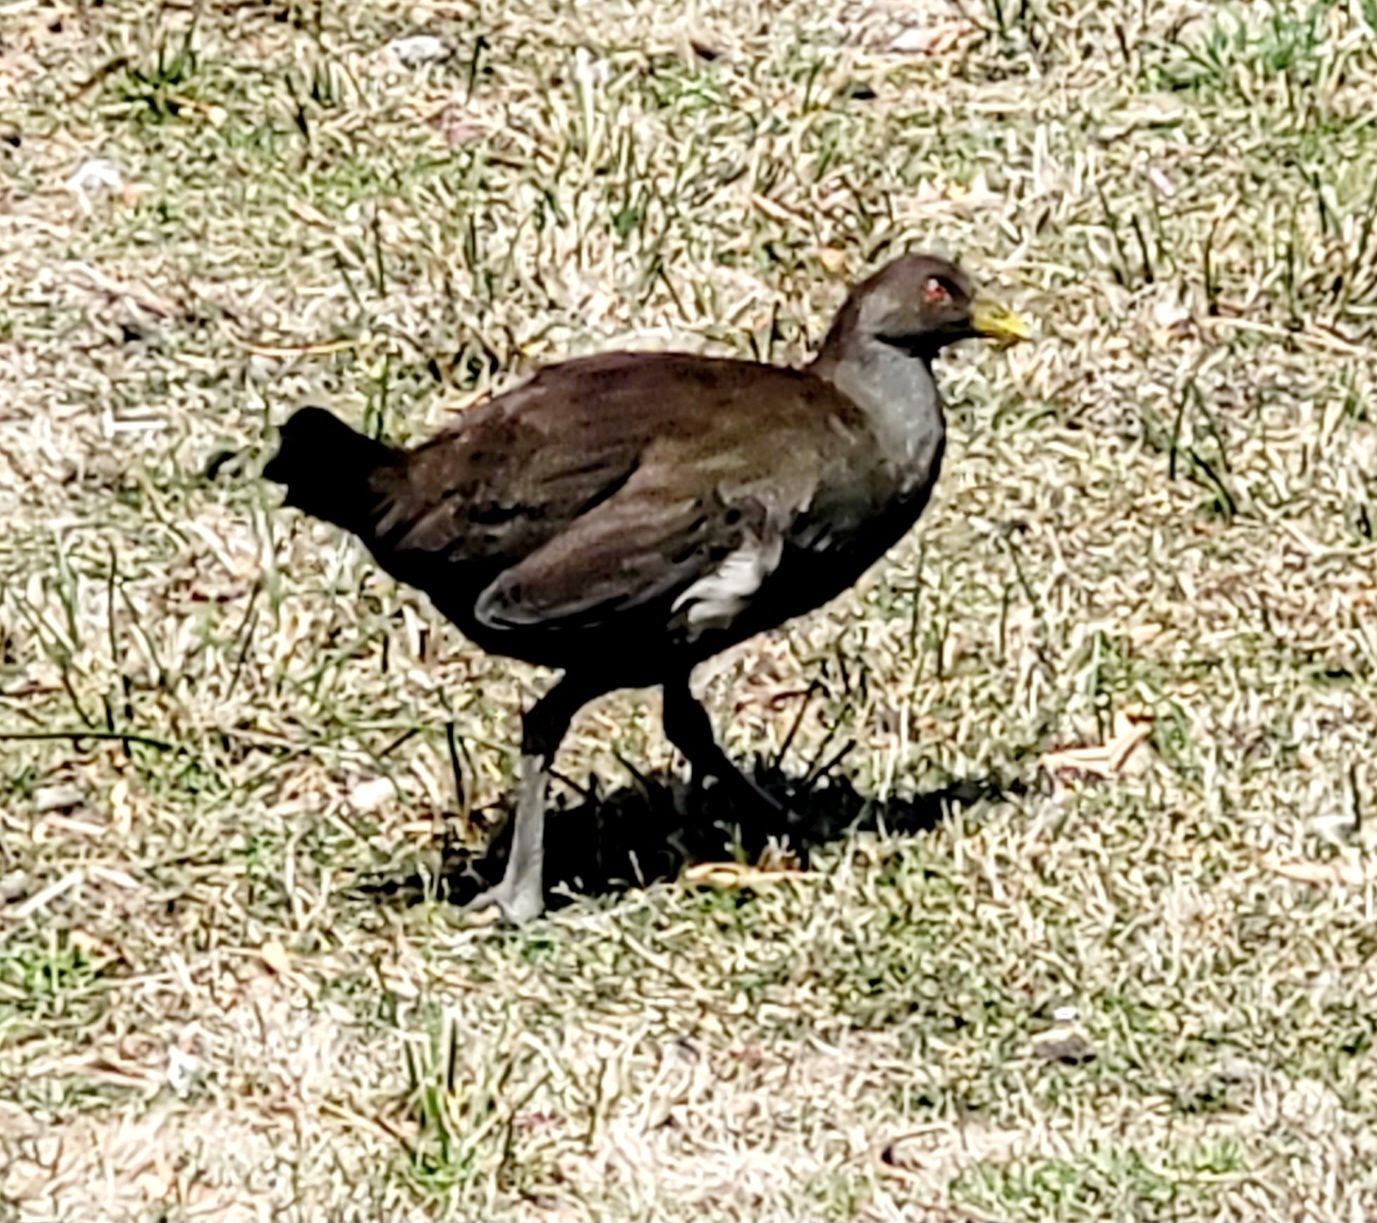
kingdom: Animalia
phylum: Chordata
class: Aves
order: Gruiformes
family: Rallidae
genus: Gallinula
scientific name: Gallinula mortierii
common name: Tasmanian nativehen
